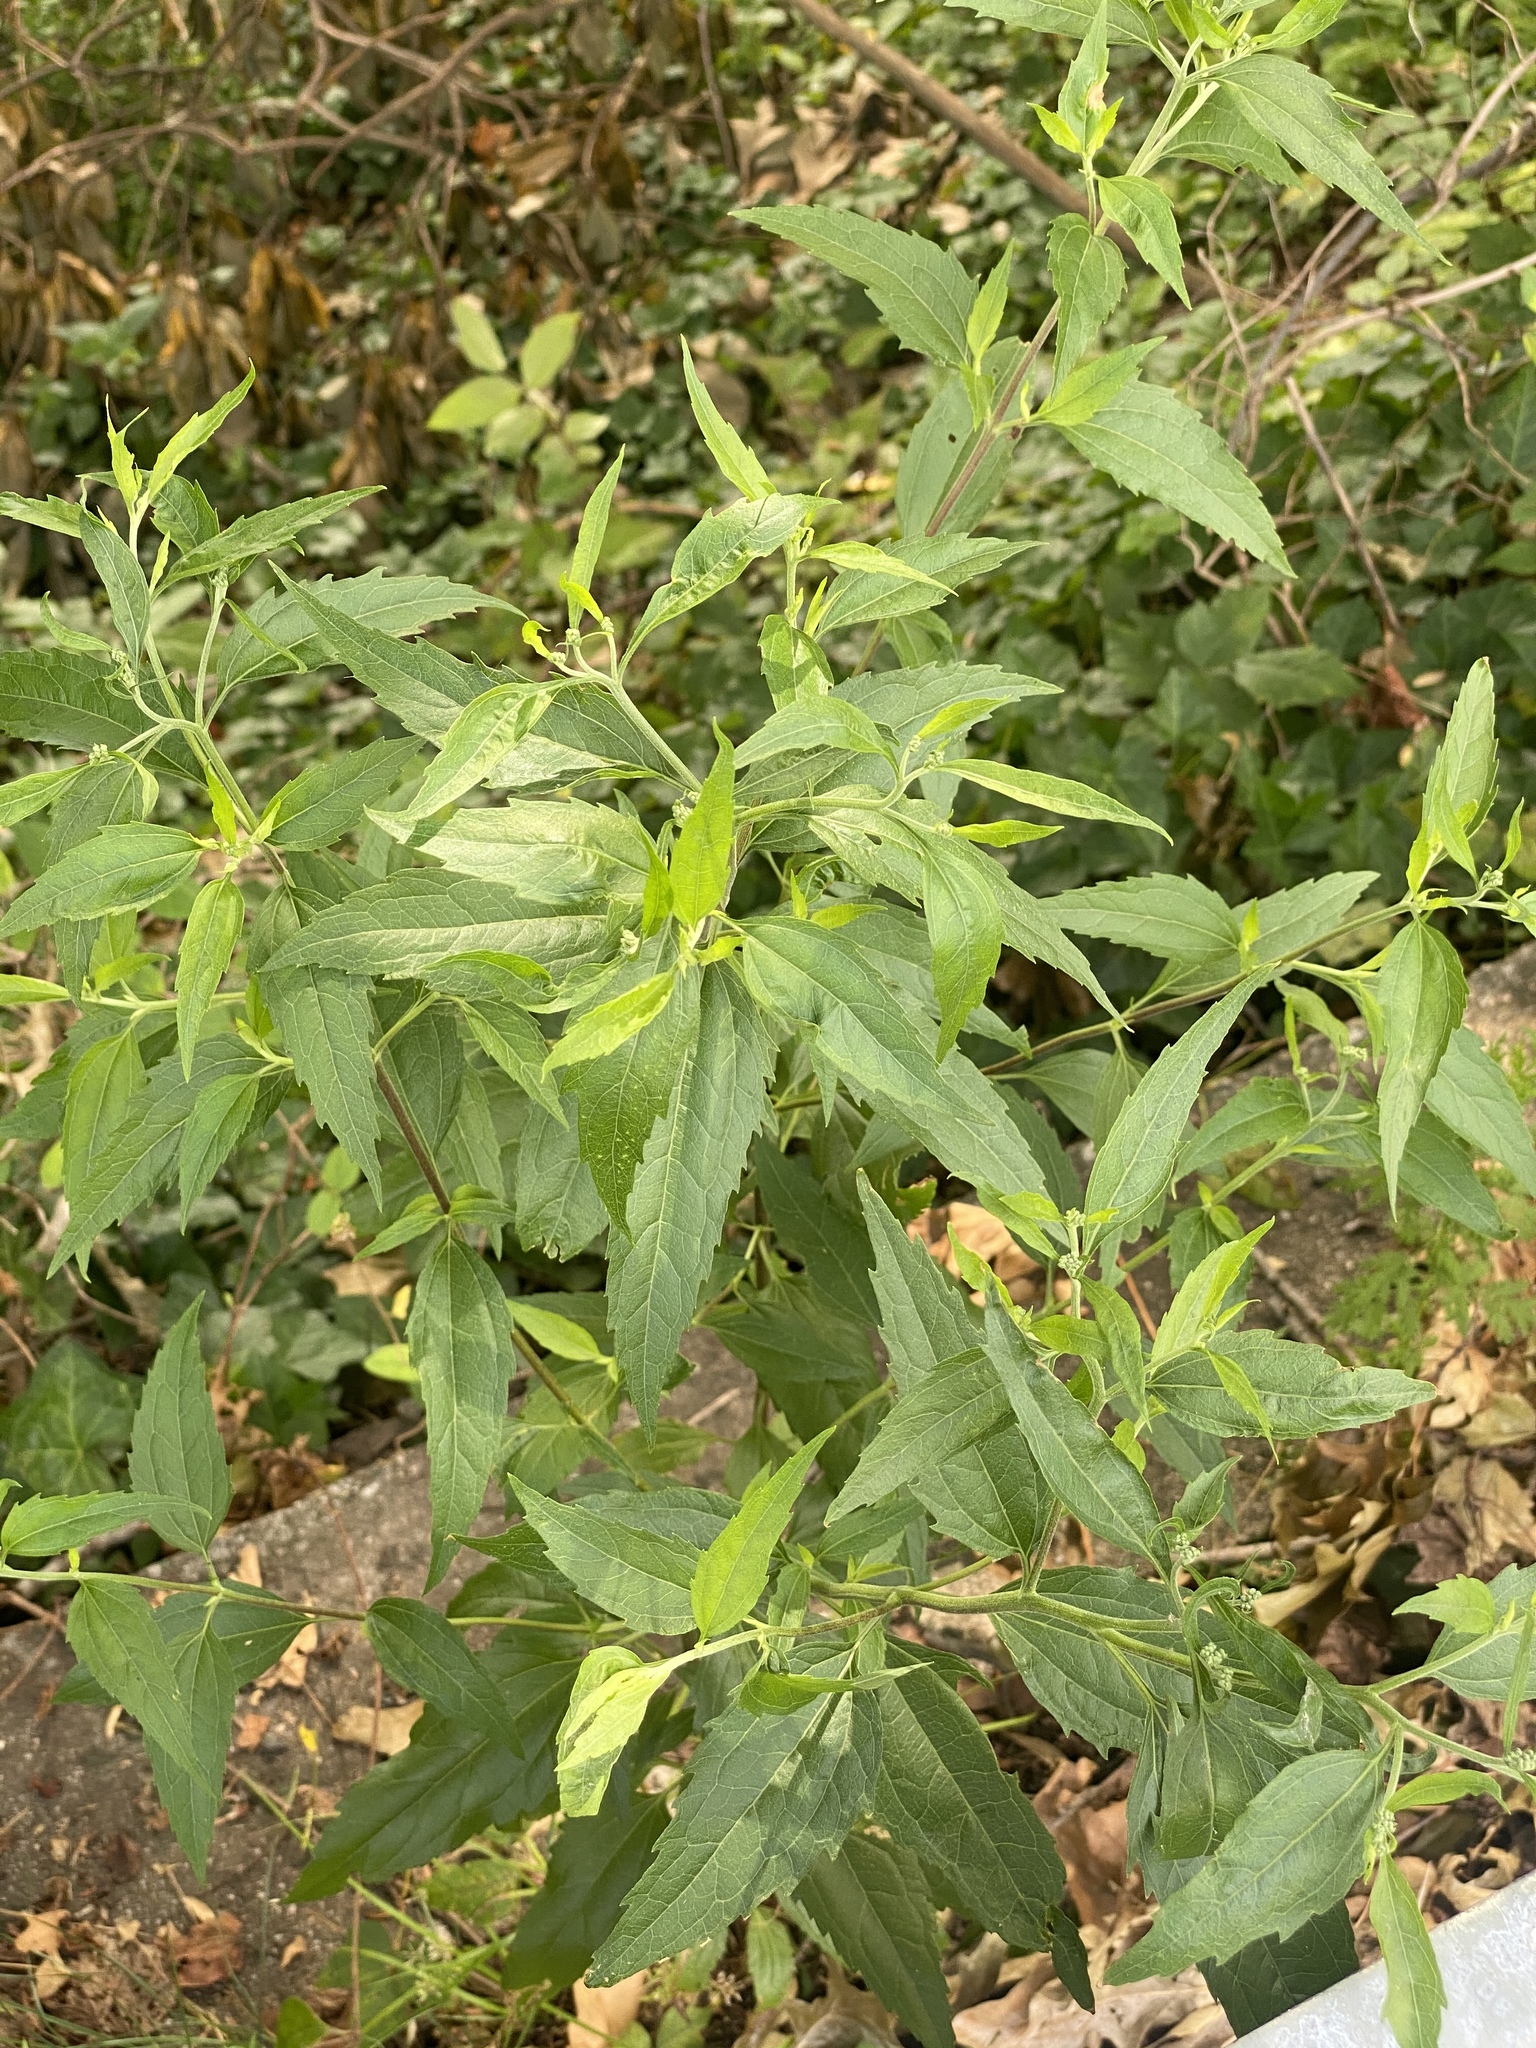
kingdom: Plantae
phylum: Tracheophyta
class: Magnoliopsida
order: Asterales
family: Asteraceae
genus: Eupatorium
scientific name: Eupatorium serotinum
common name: Late boneset
